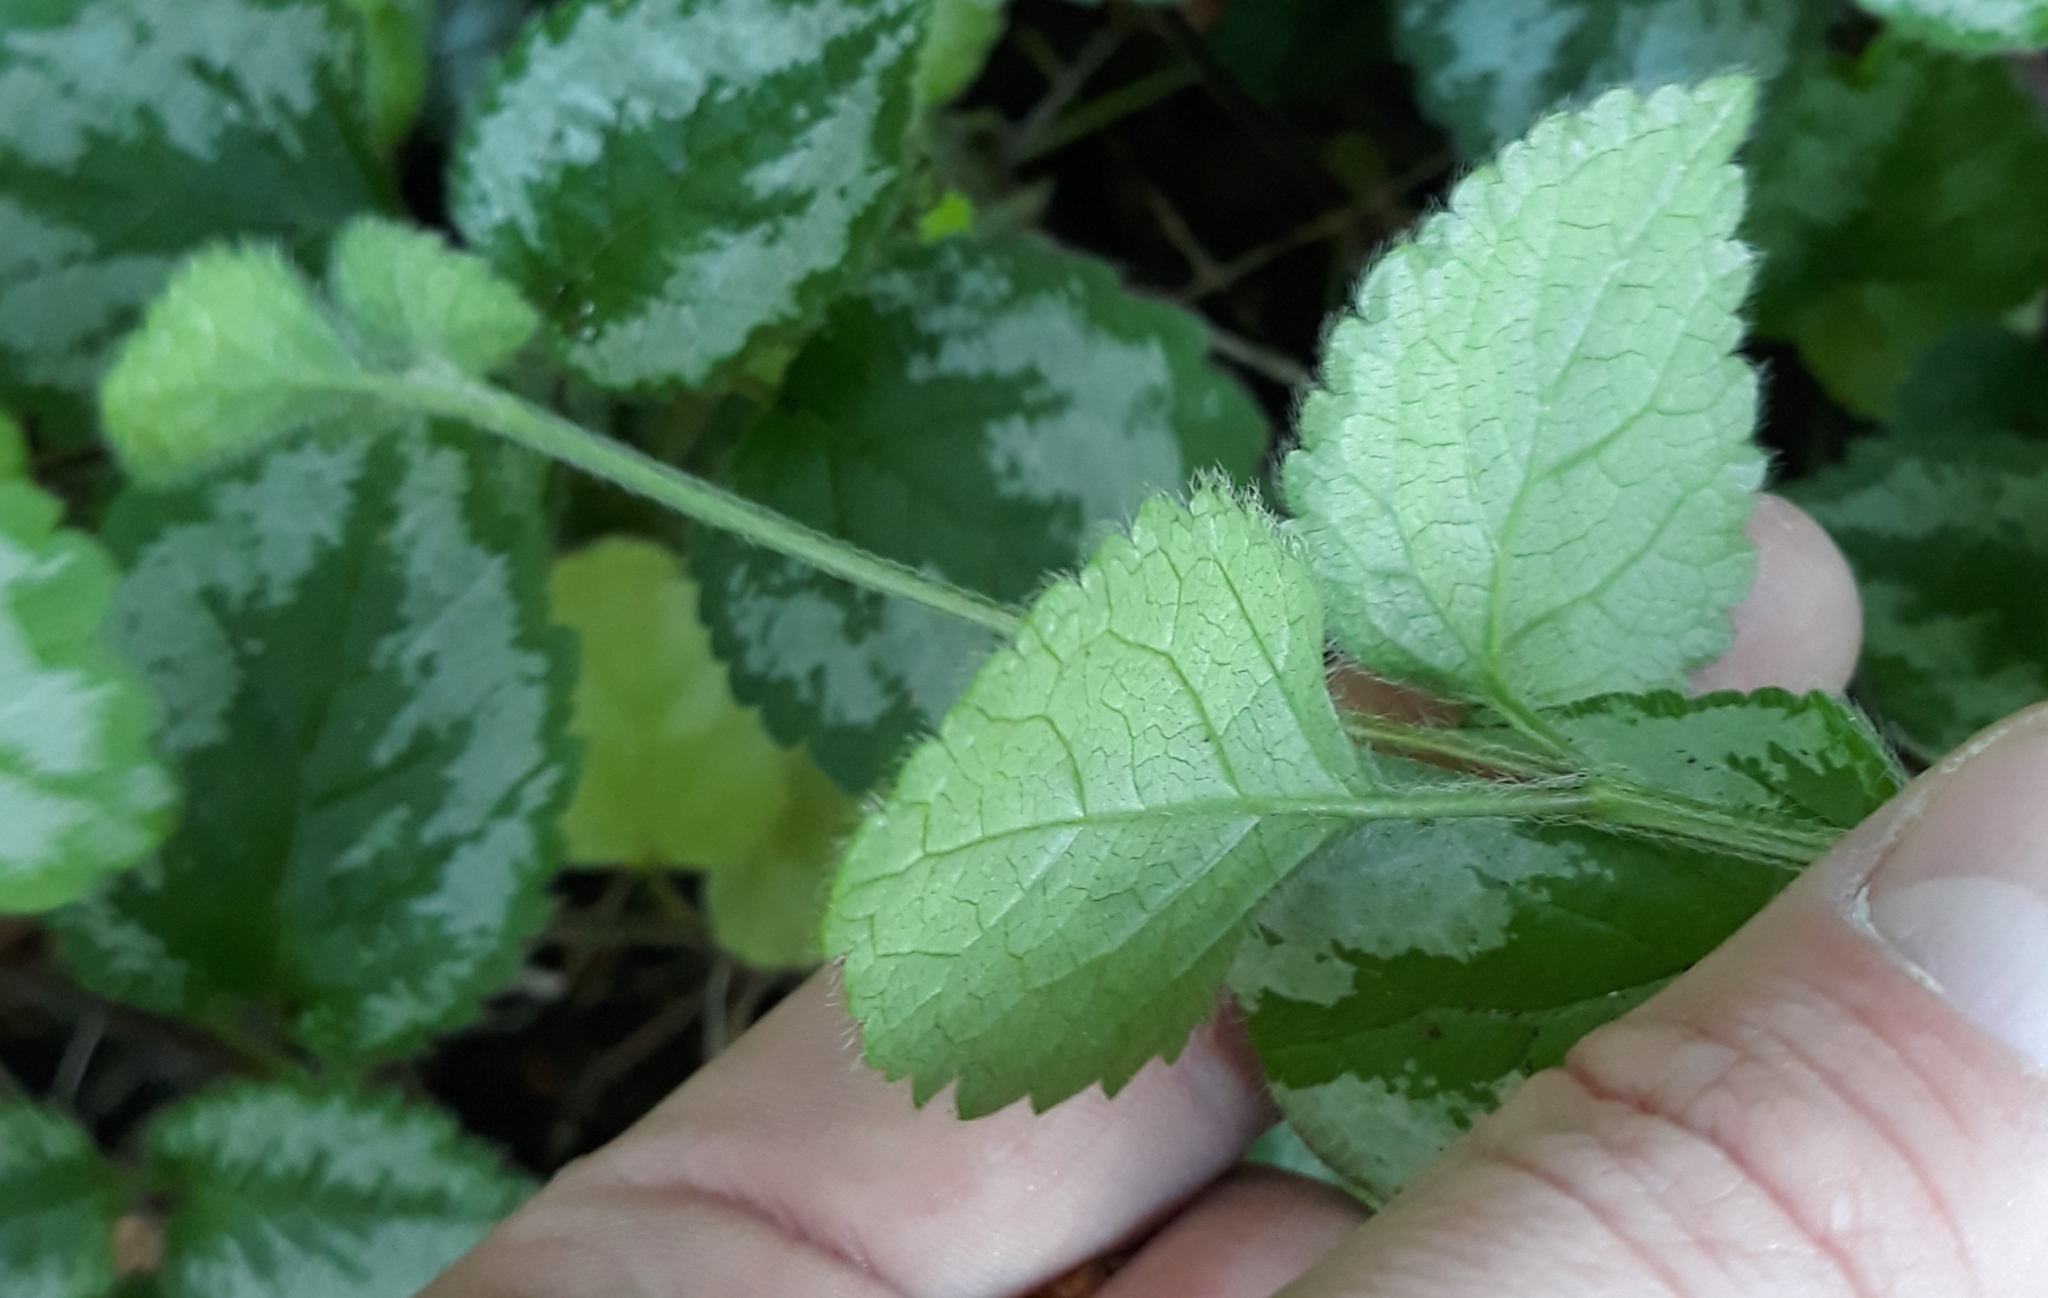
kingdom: Plantae
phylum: Tracheophyta
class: Magnoliopsida
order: Lamiales
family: Lamiaceae
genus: Lamium
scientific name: Lamium galeobdolon
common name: Yellow archangel
